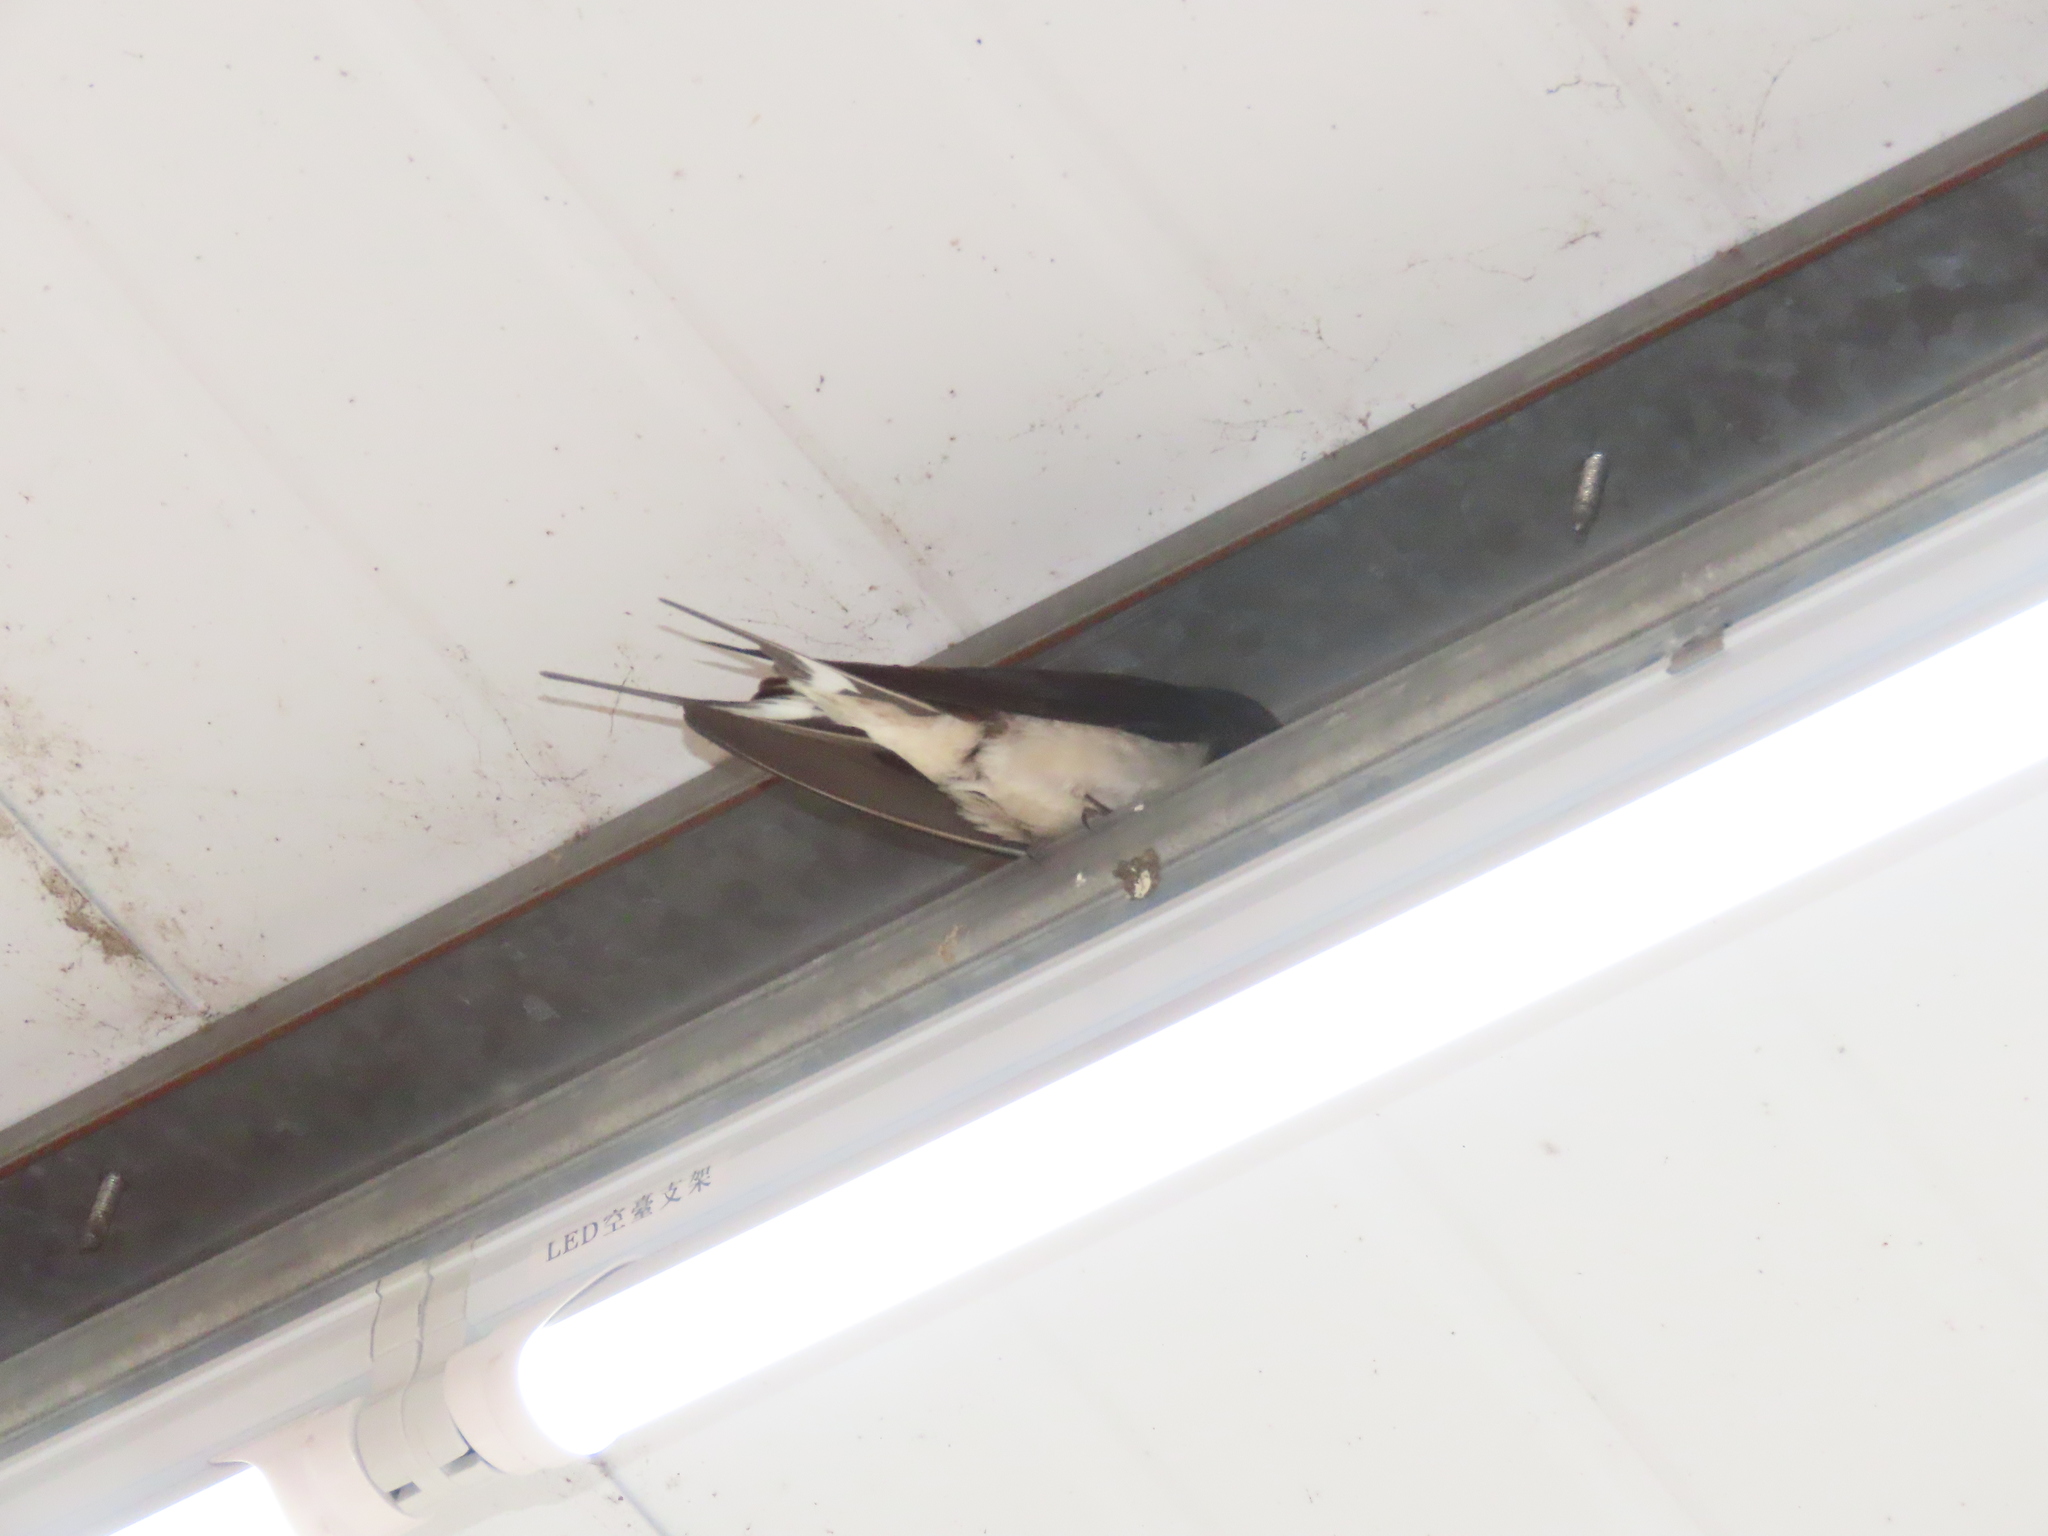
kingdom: Animalia
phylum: Chordata
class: Aves
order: Passeriformes
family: Hirundinidae
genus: Hirundo
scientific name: Hirundo rustica
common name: Barn swallow
